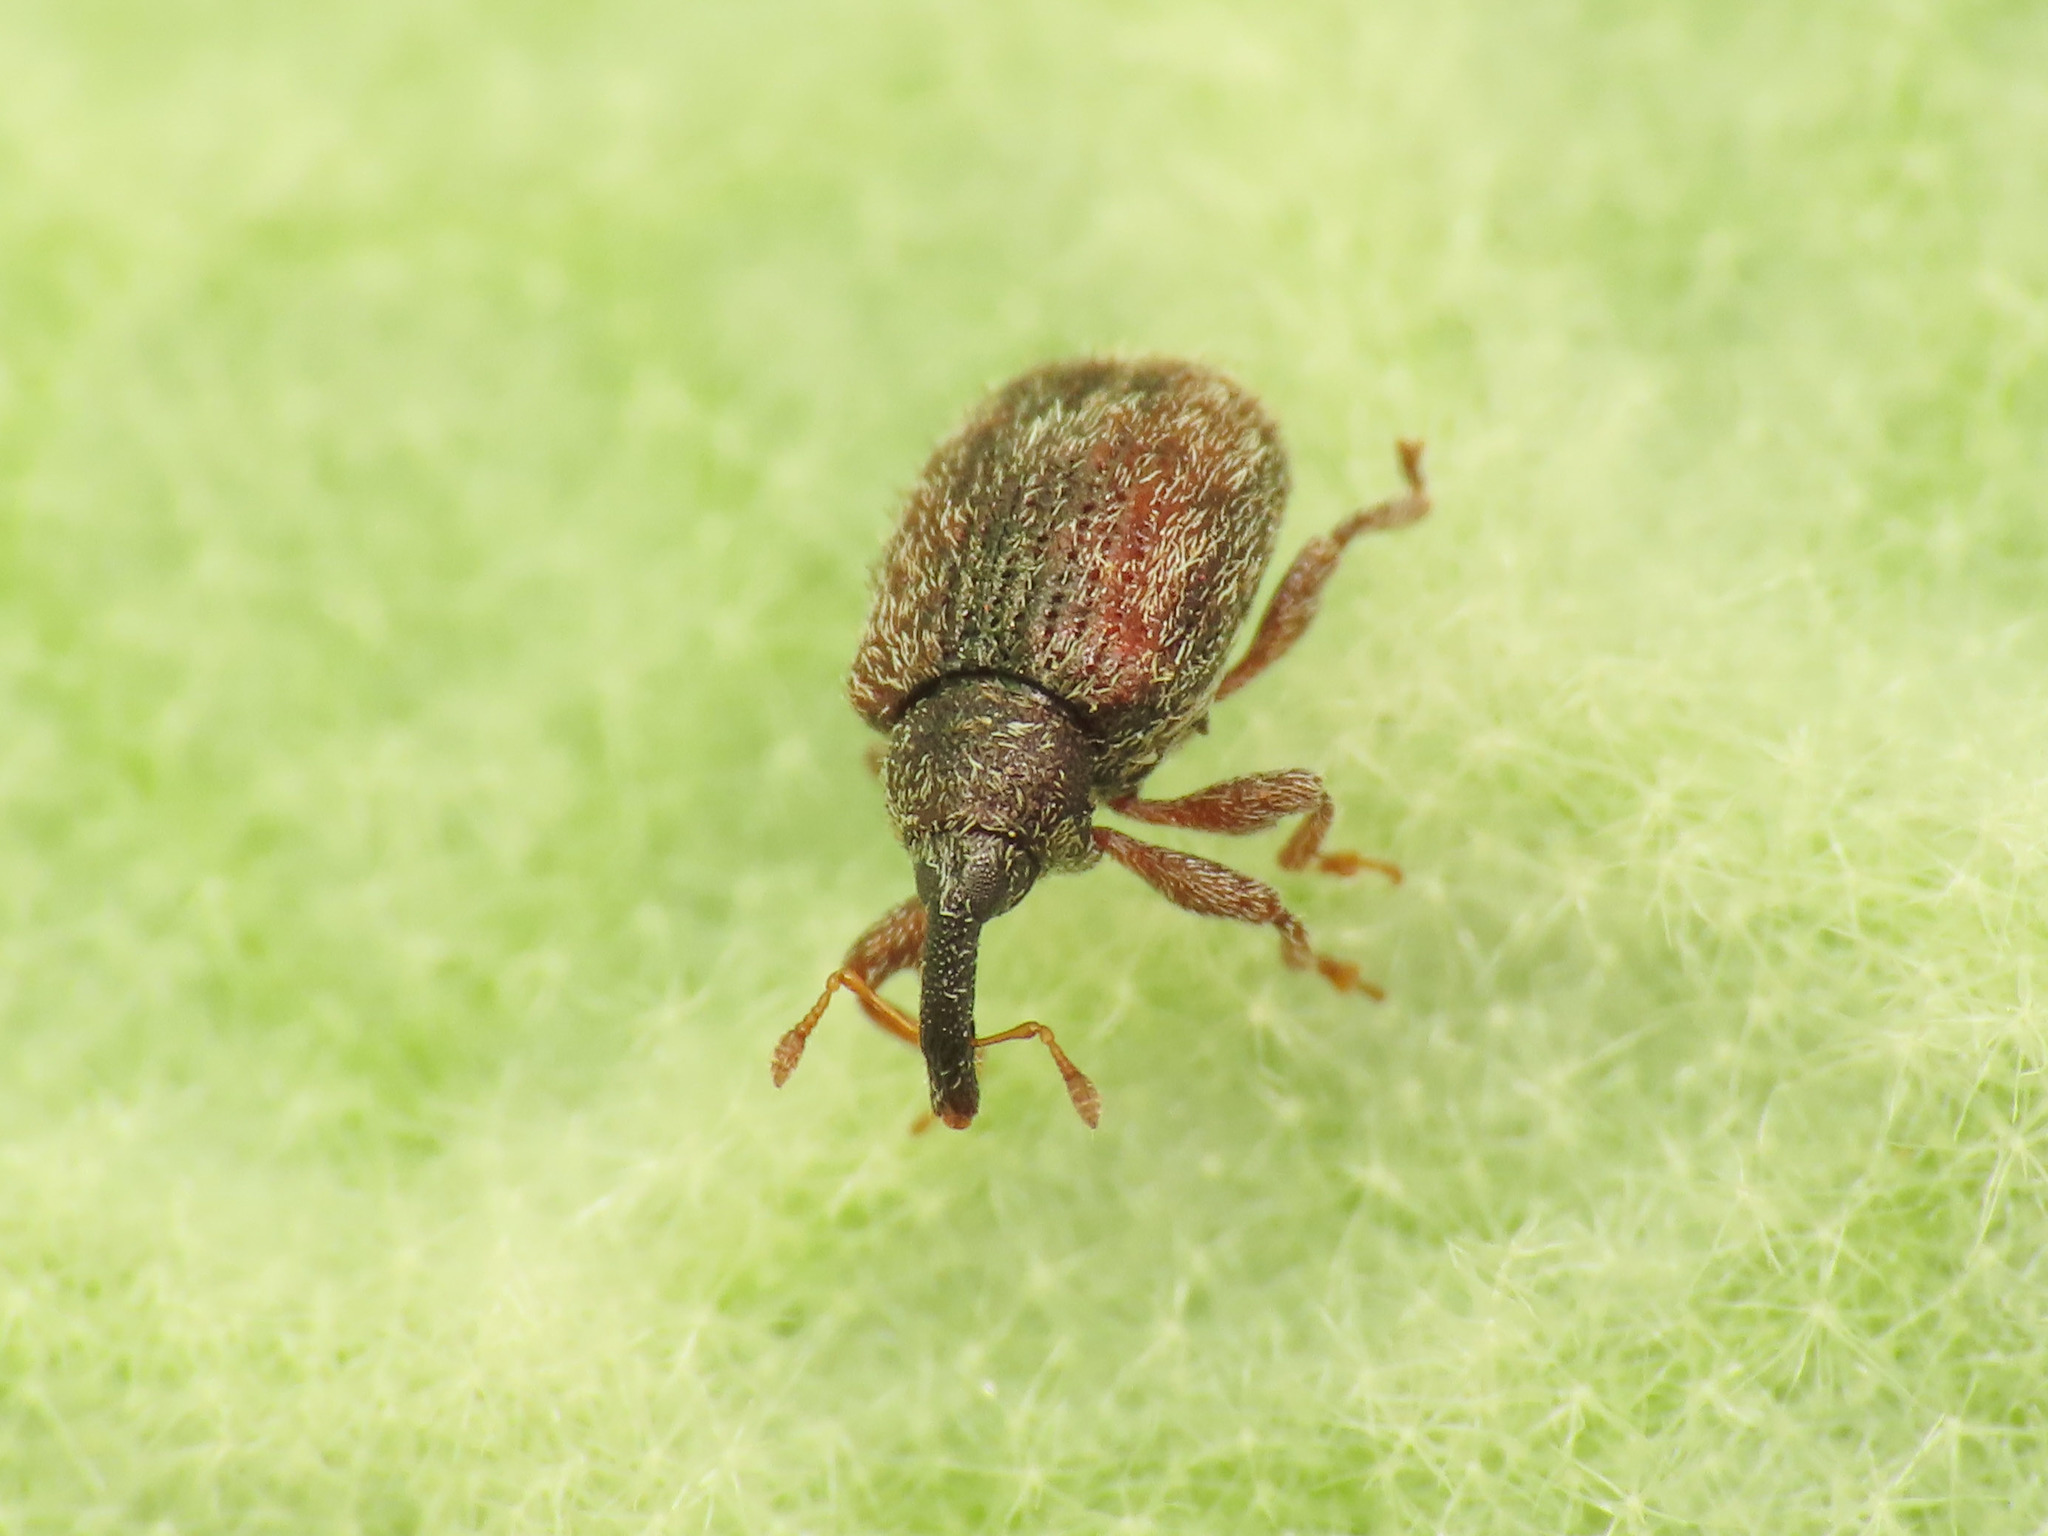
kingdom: Animalia
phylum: Arthropoda
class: Insecta
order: Coleoptera
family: Curculionidae
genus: Cleopus
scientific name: Cleopus solani
